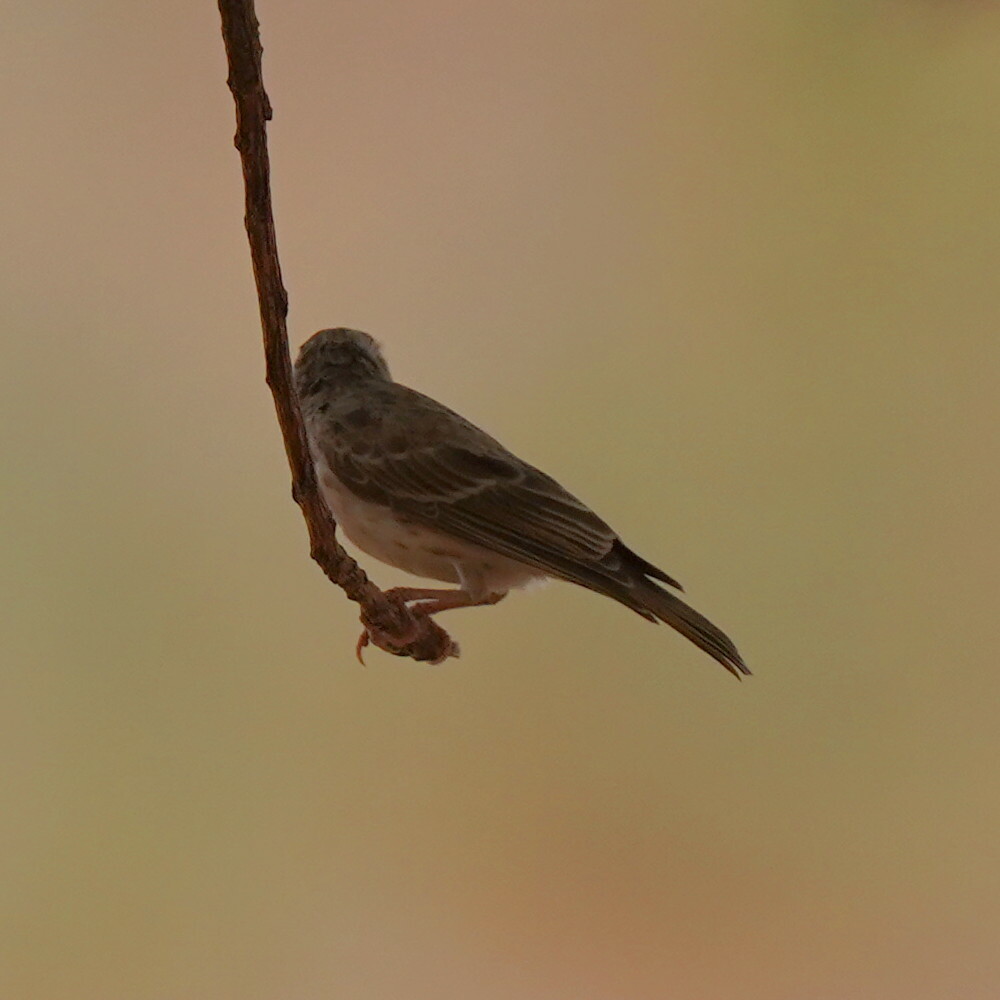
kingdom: Animalia
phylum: Chordata
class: Aves
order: Passeriformes
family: Fringillidae
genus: Crithagra
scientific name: Crithagra leucopygia
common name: White-rumped seedeater
